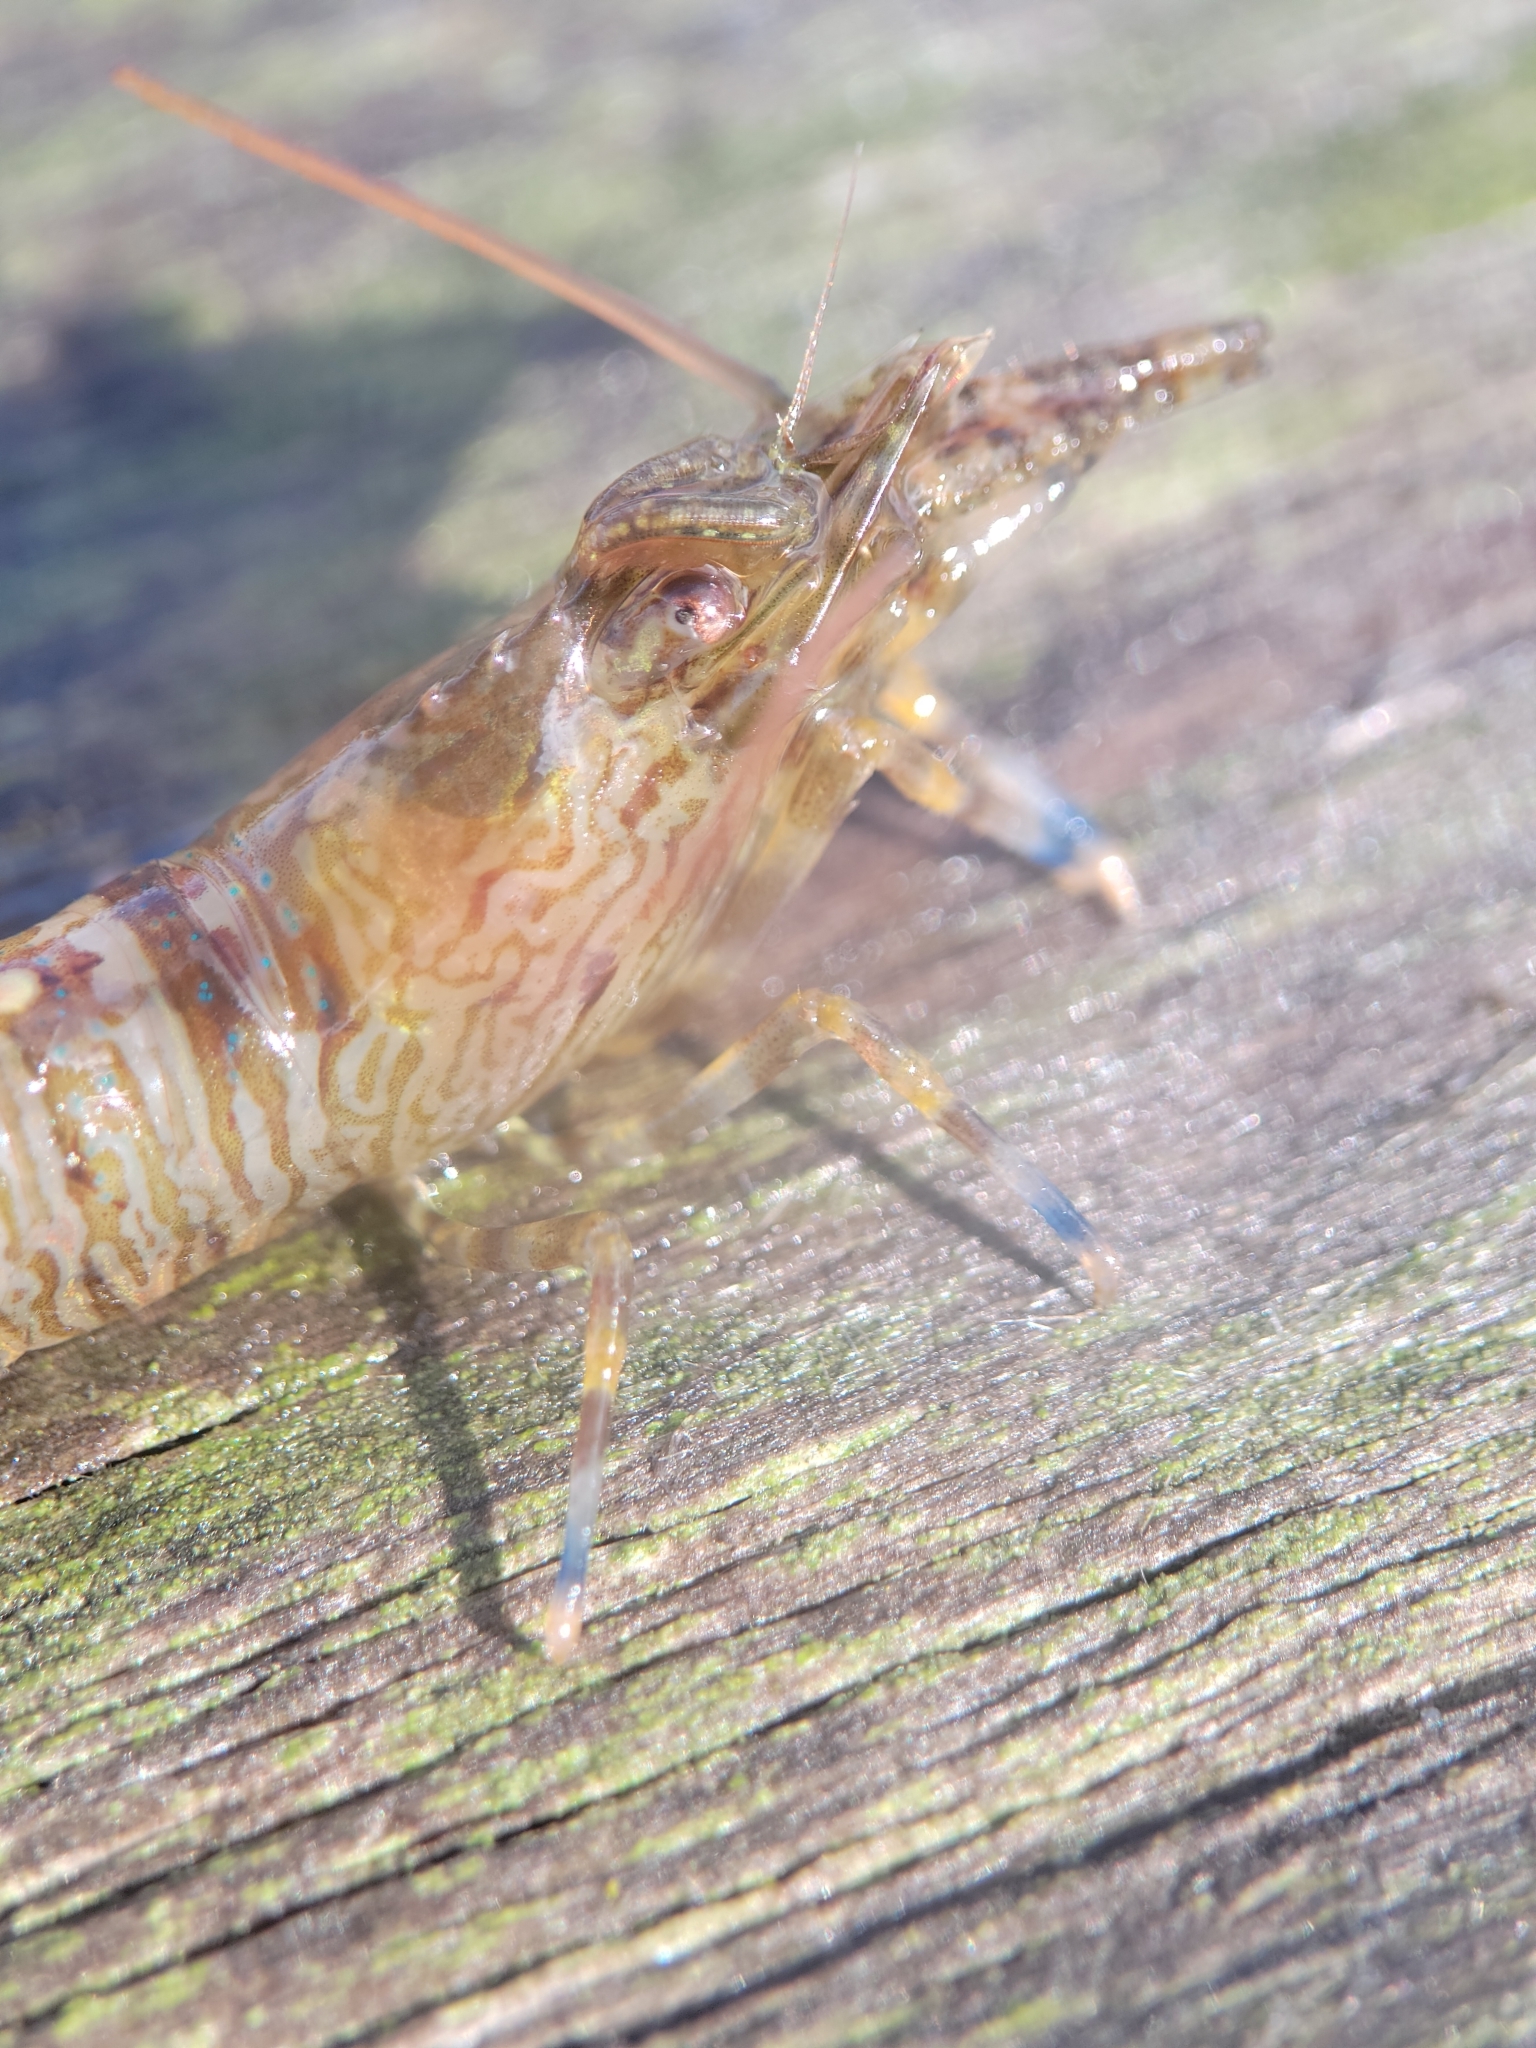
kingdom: Animalia
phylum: Arthropoda
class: Malacostraca
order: Decapoda
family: Thoridae
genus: Heptacarpus
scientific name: Heptacarpus palpator
